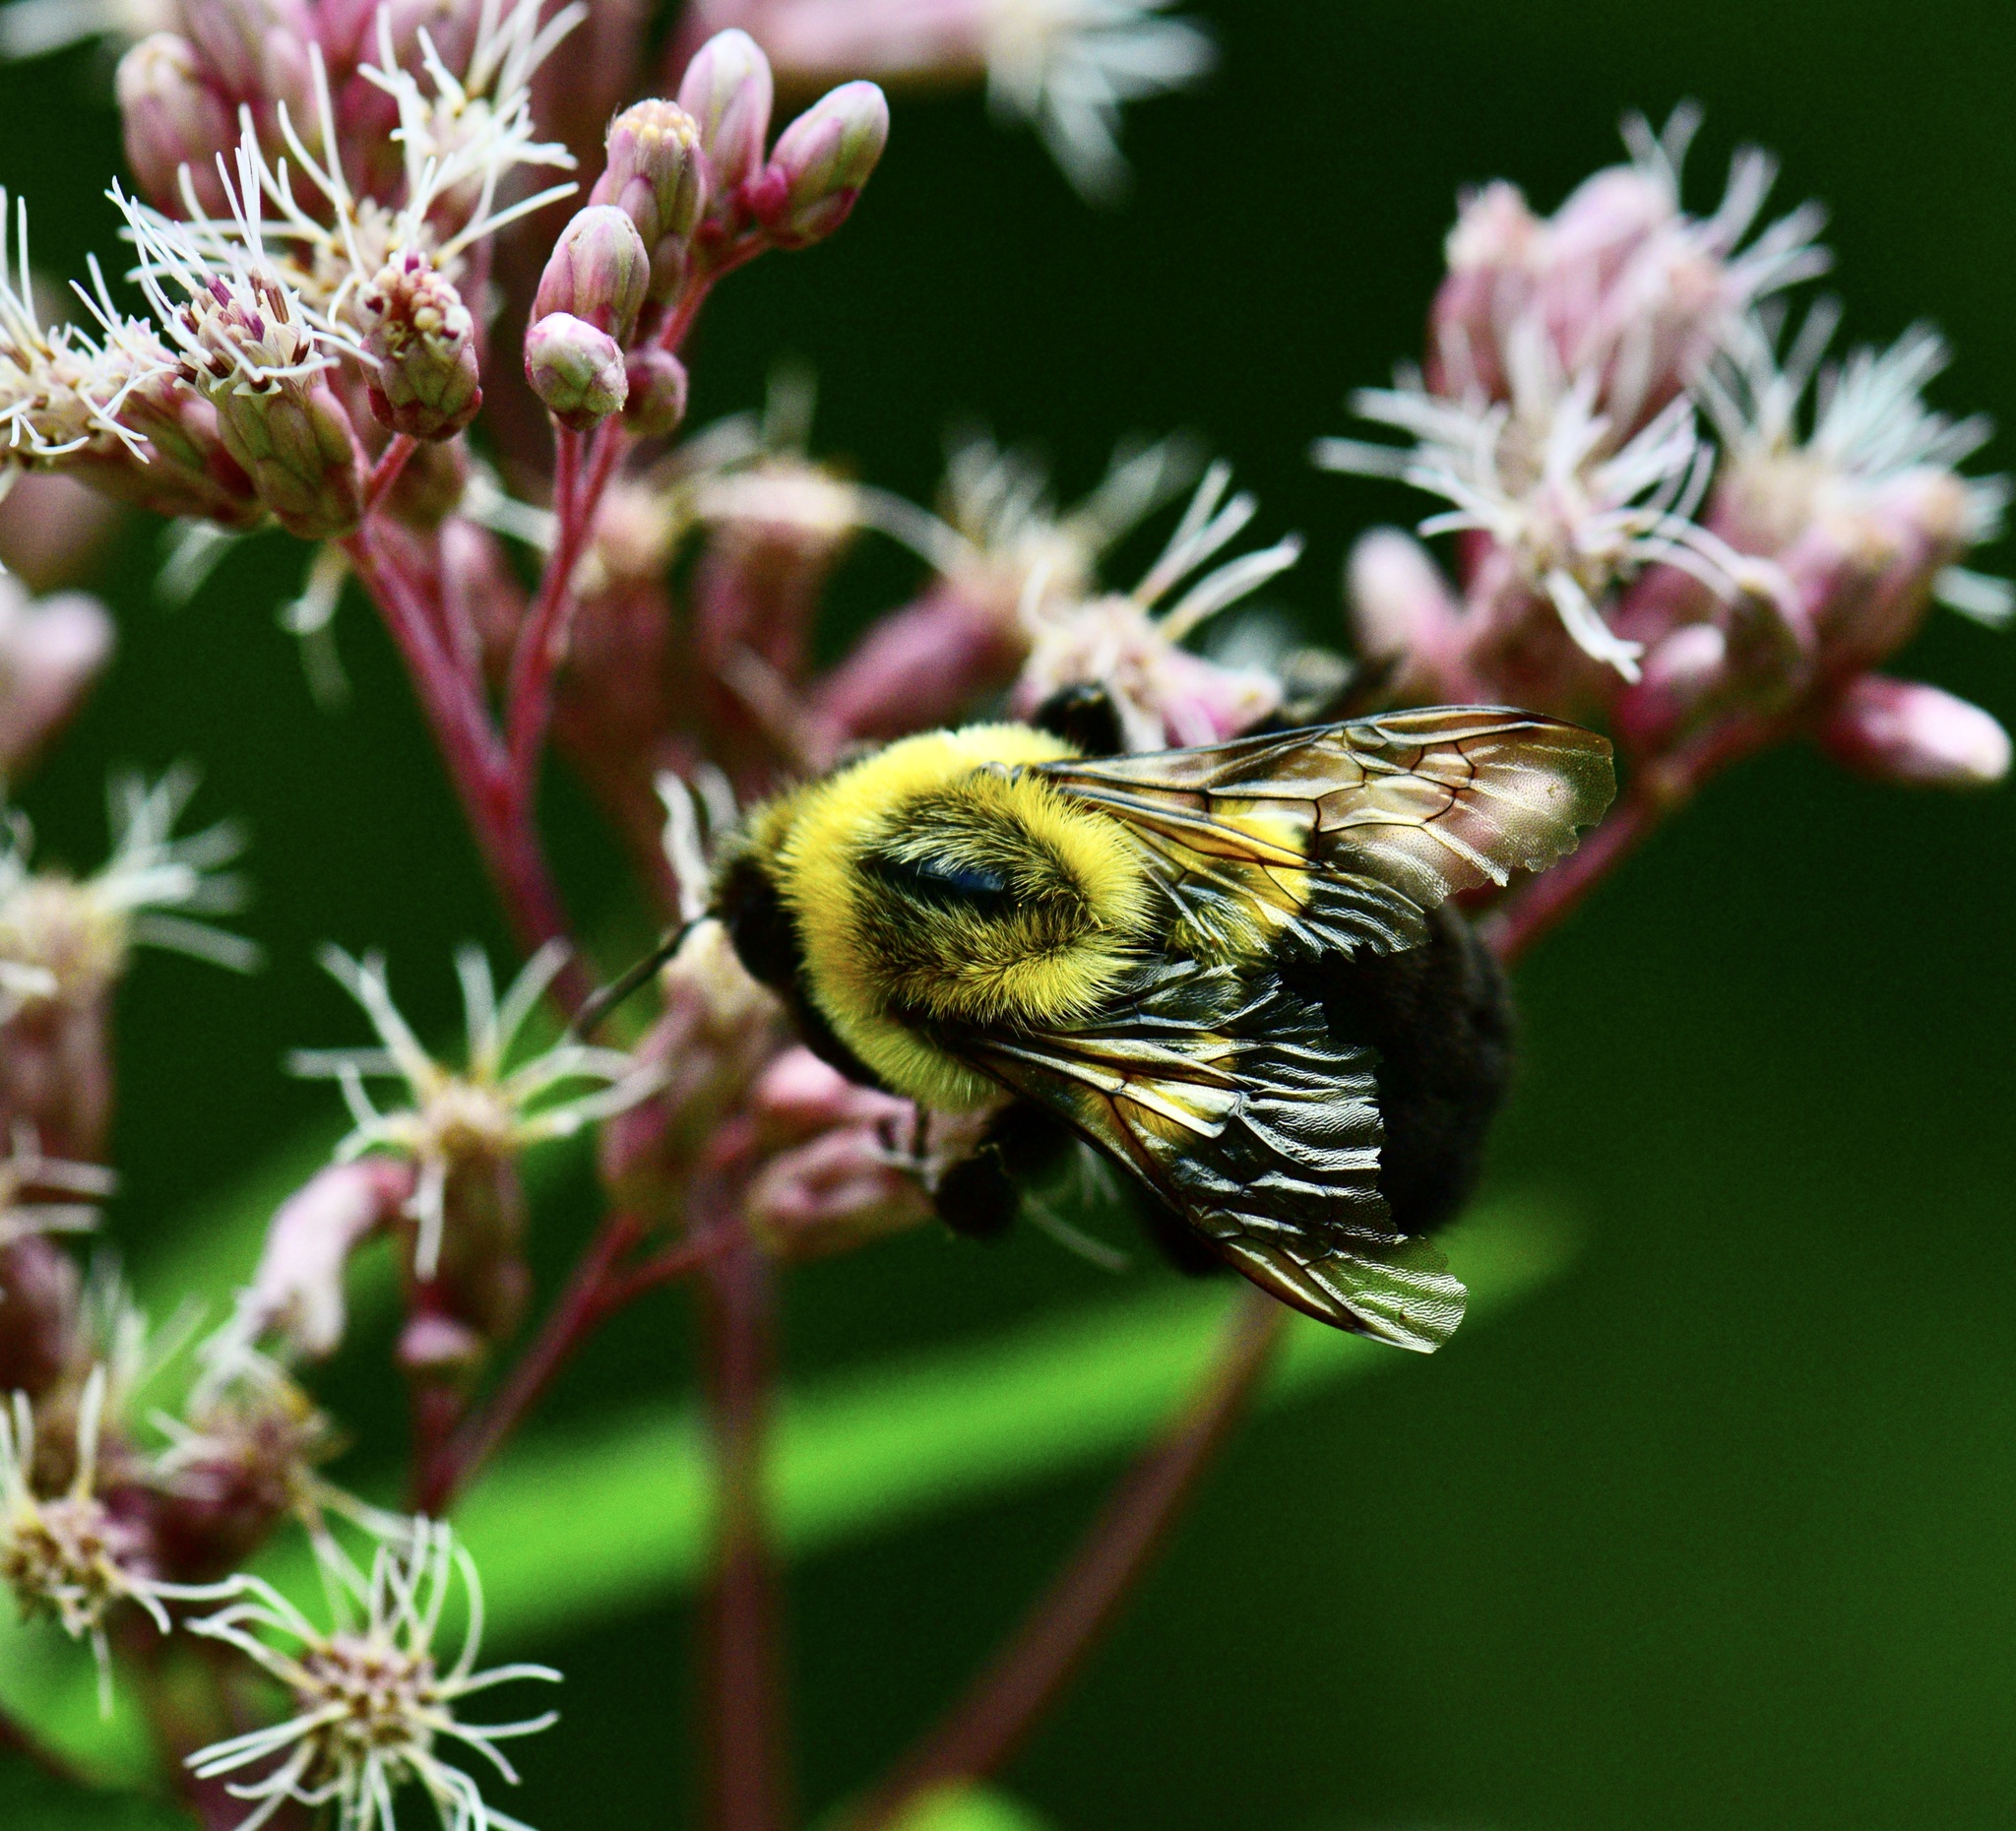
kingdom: Animalia
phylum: Arthropoda
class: Insecta
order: Hymenoptera
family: Apidae
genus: Bombus
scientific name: Bombus impatiens
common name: Common eastern bumble bee
